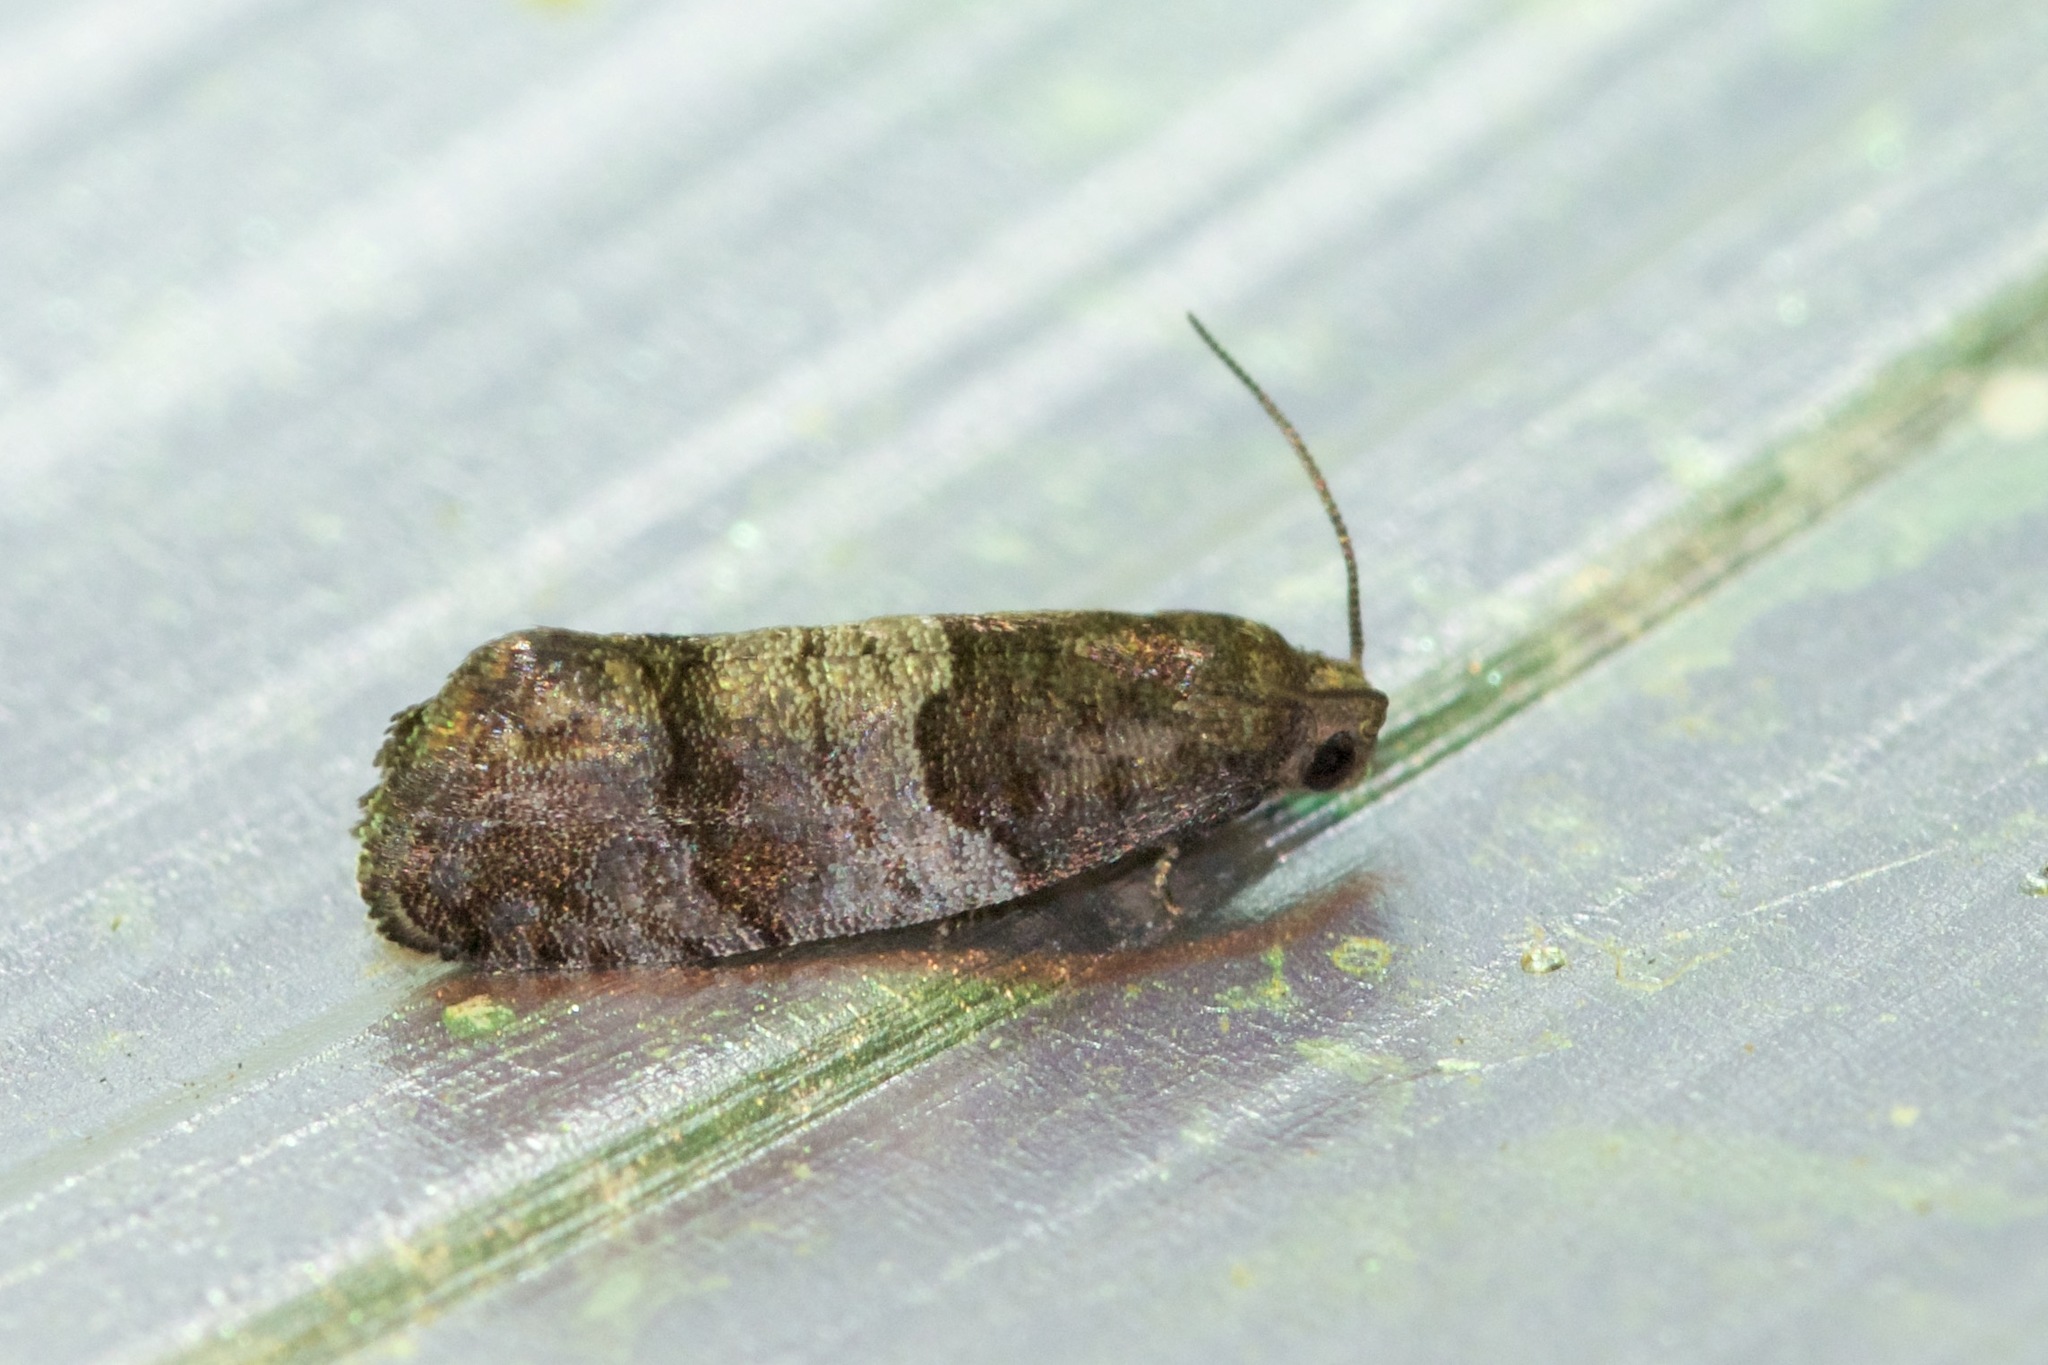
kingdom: Animalia
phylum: Arthropoda
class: Insecta
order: Lepidoptera
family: Tortricidae
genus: Larisa
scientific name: Larisa subsolana
